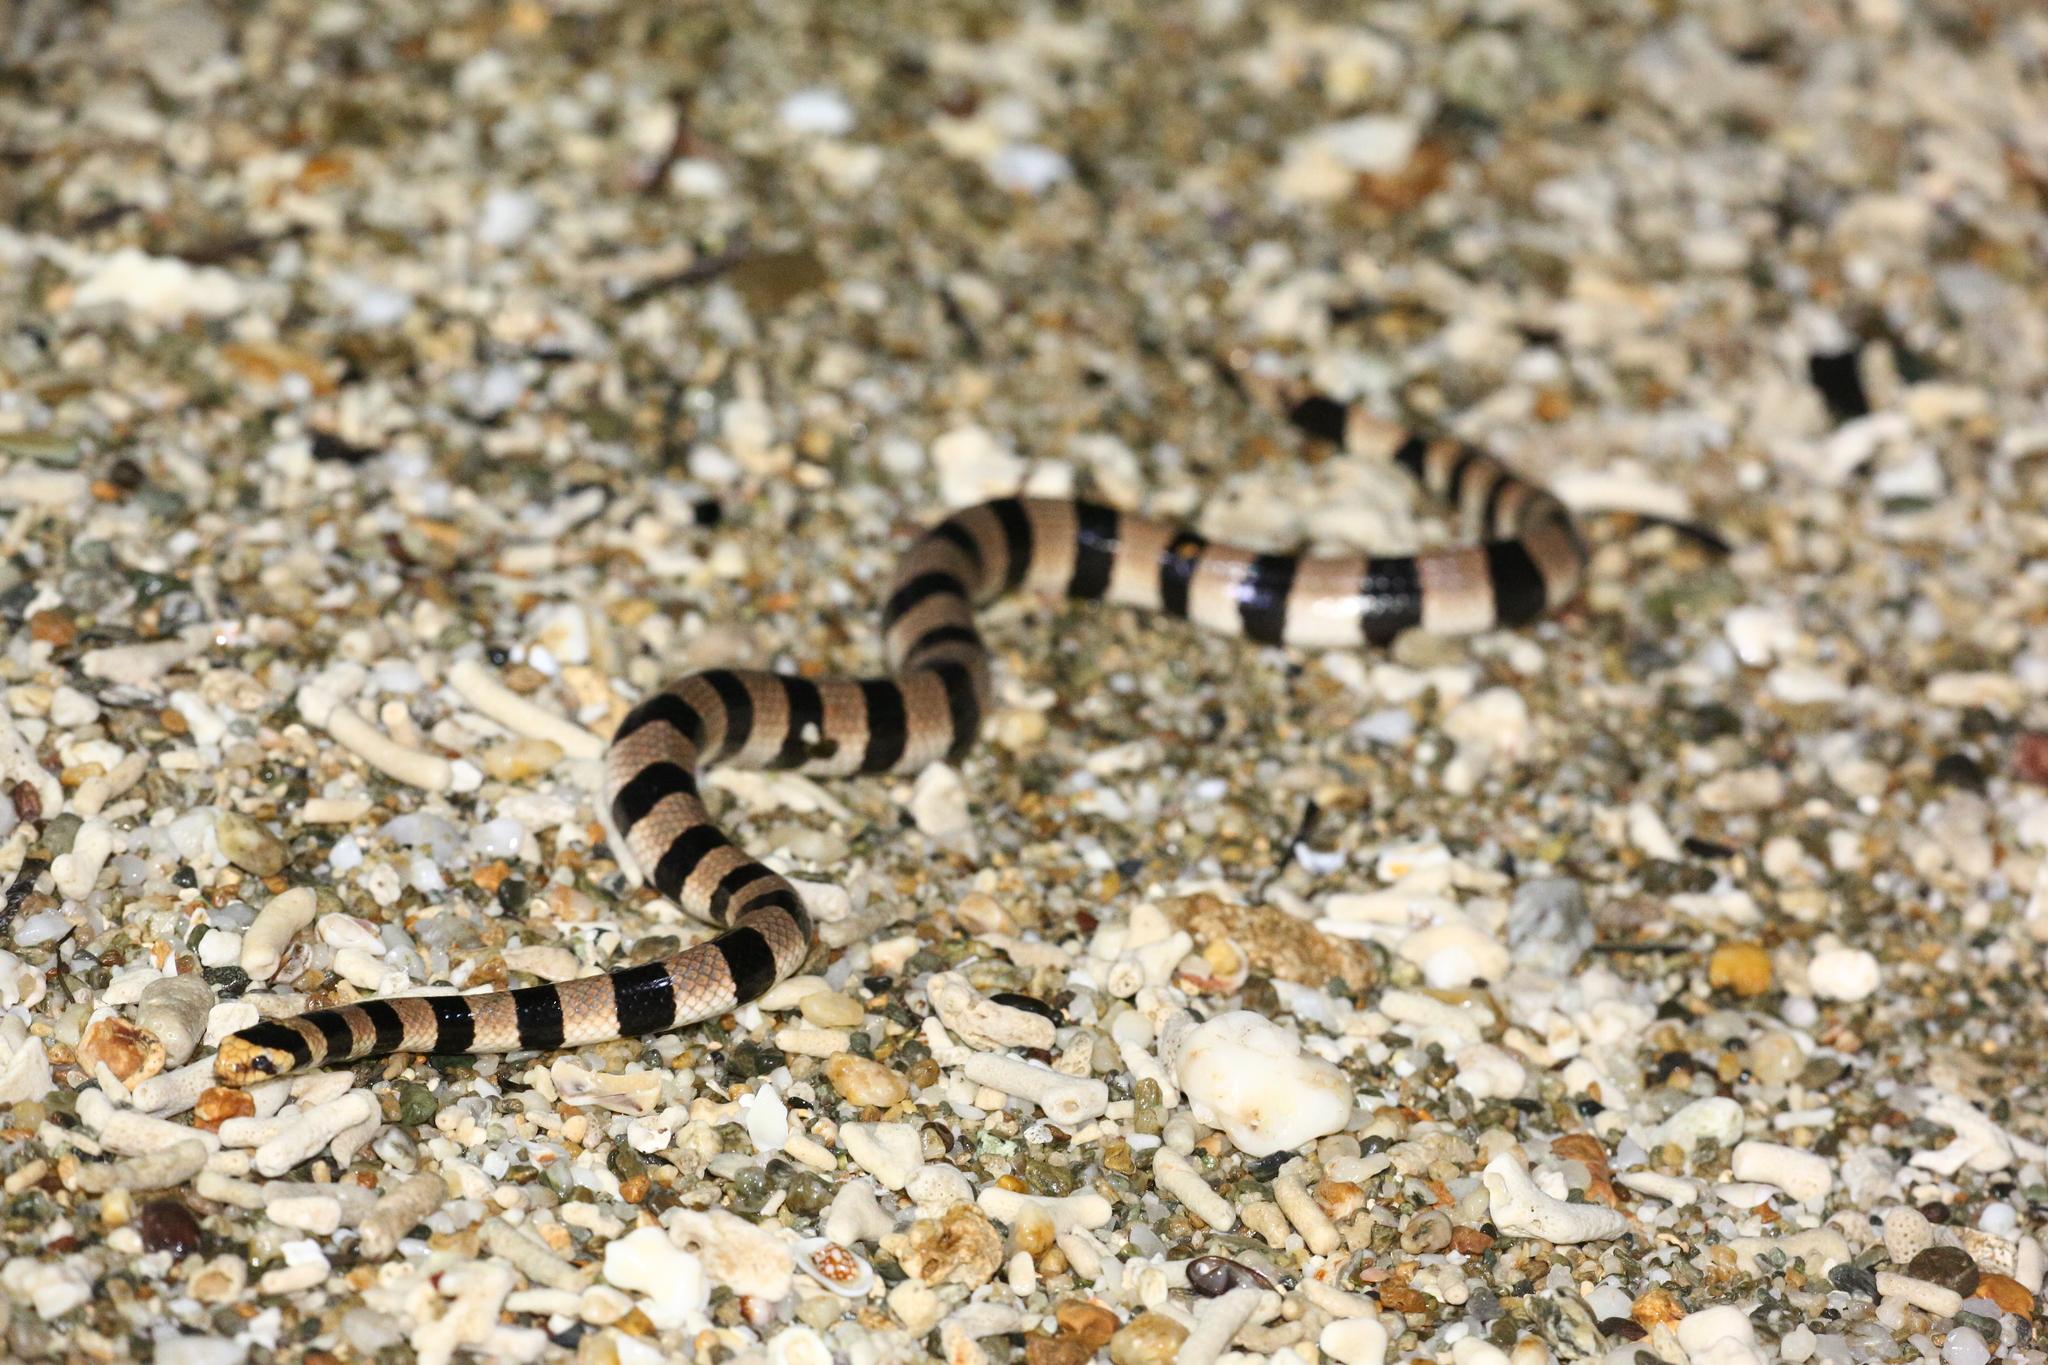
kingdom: Animalia
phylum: Chordata
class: Squamata
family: Elapidae
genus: Laticauda
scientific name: Laticauda saintgironsi
